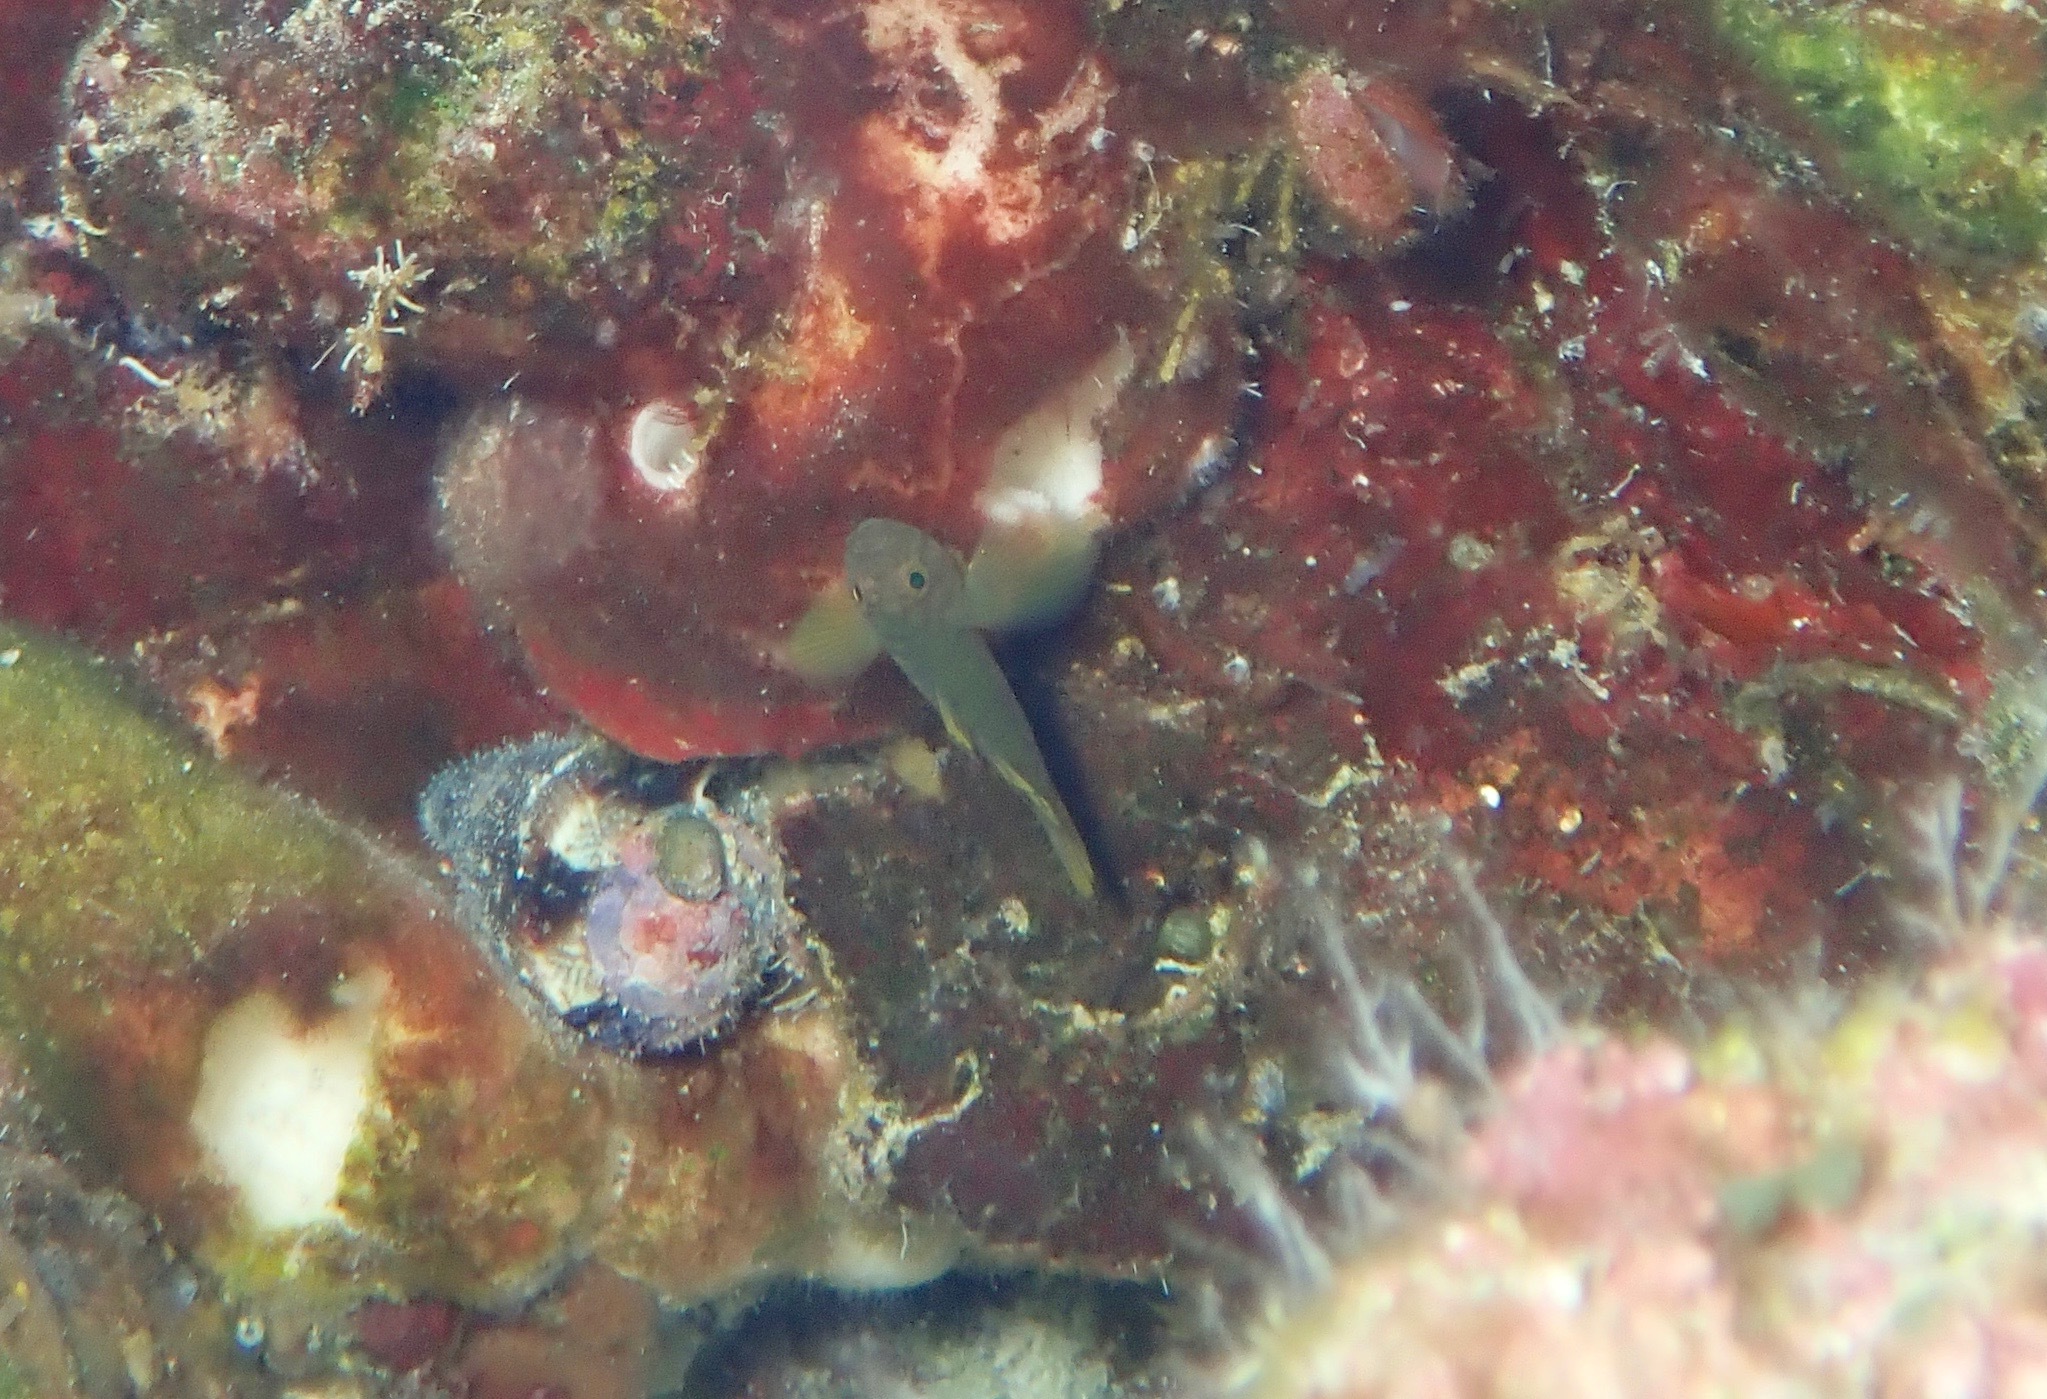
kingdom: Animalia
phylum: Chordata
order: Perciformes
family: Gobiidae
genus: Priolepis
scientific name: Priolepis aureoviridis
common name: Golden goby
